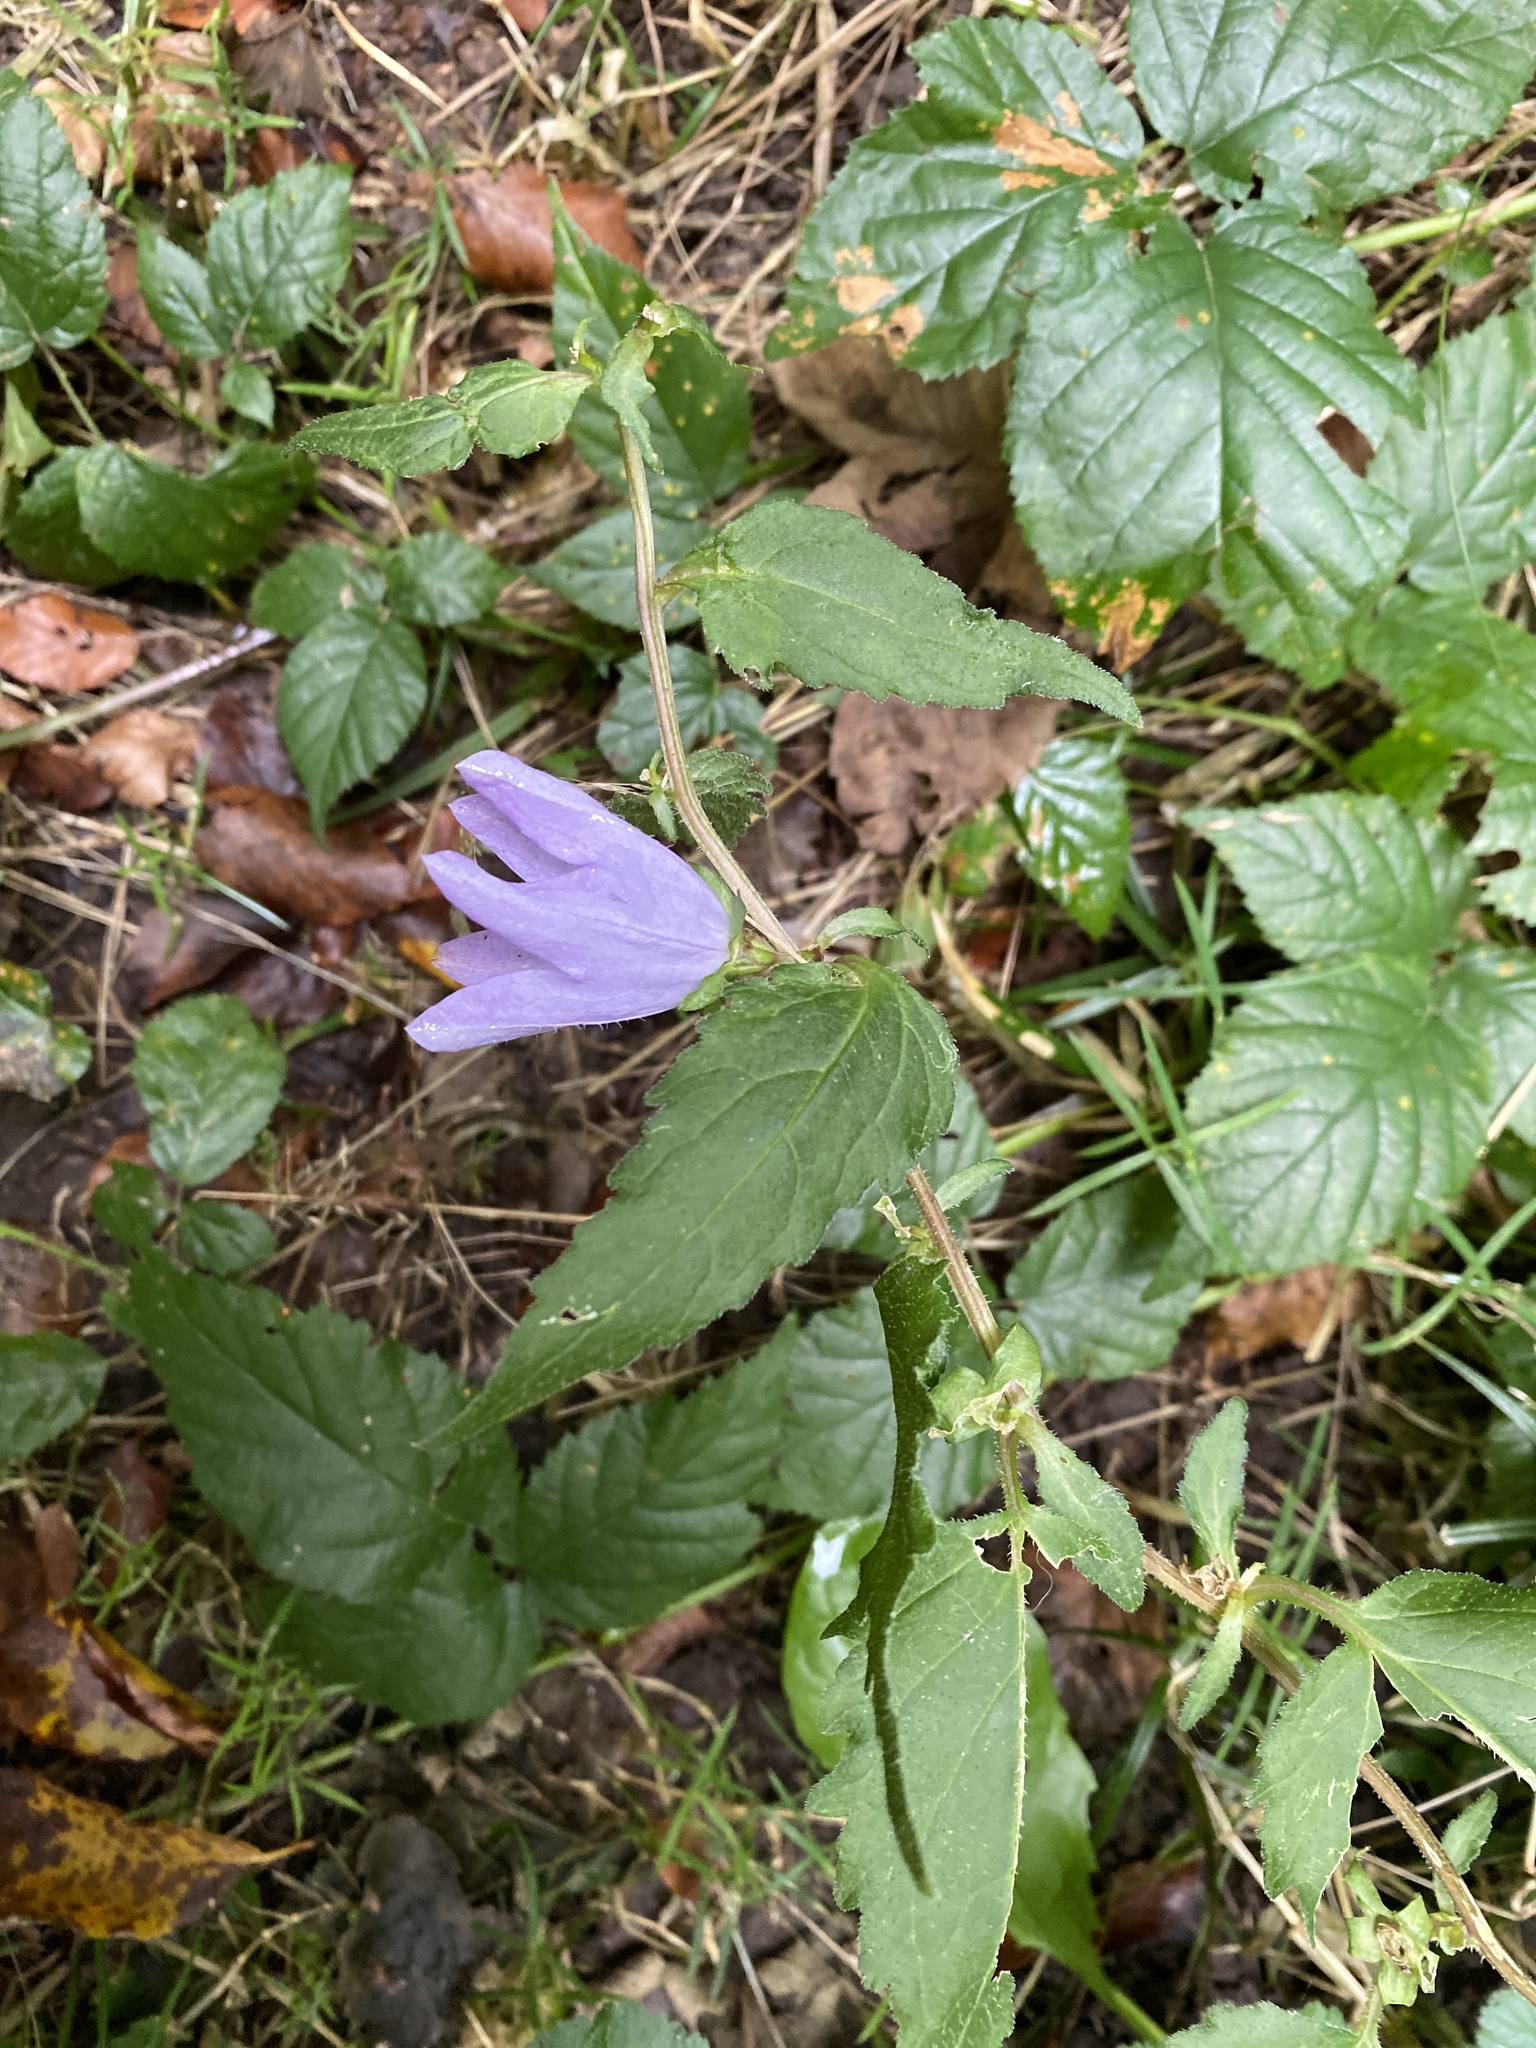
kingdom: Plantae
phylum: Tracheophyta
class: Magnoliopsida
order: Asterales
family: Campanulaceae
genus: Campanula
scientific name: Campanula trachelium
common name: Nettle-leaved bellflower
